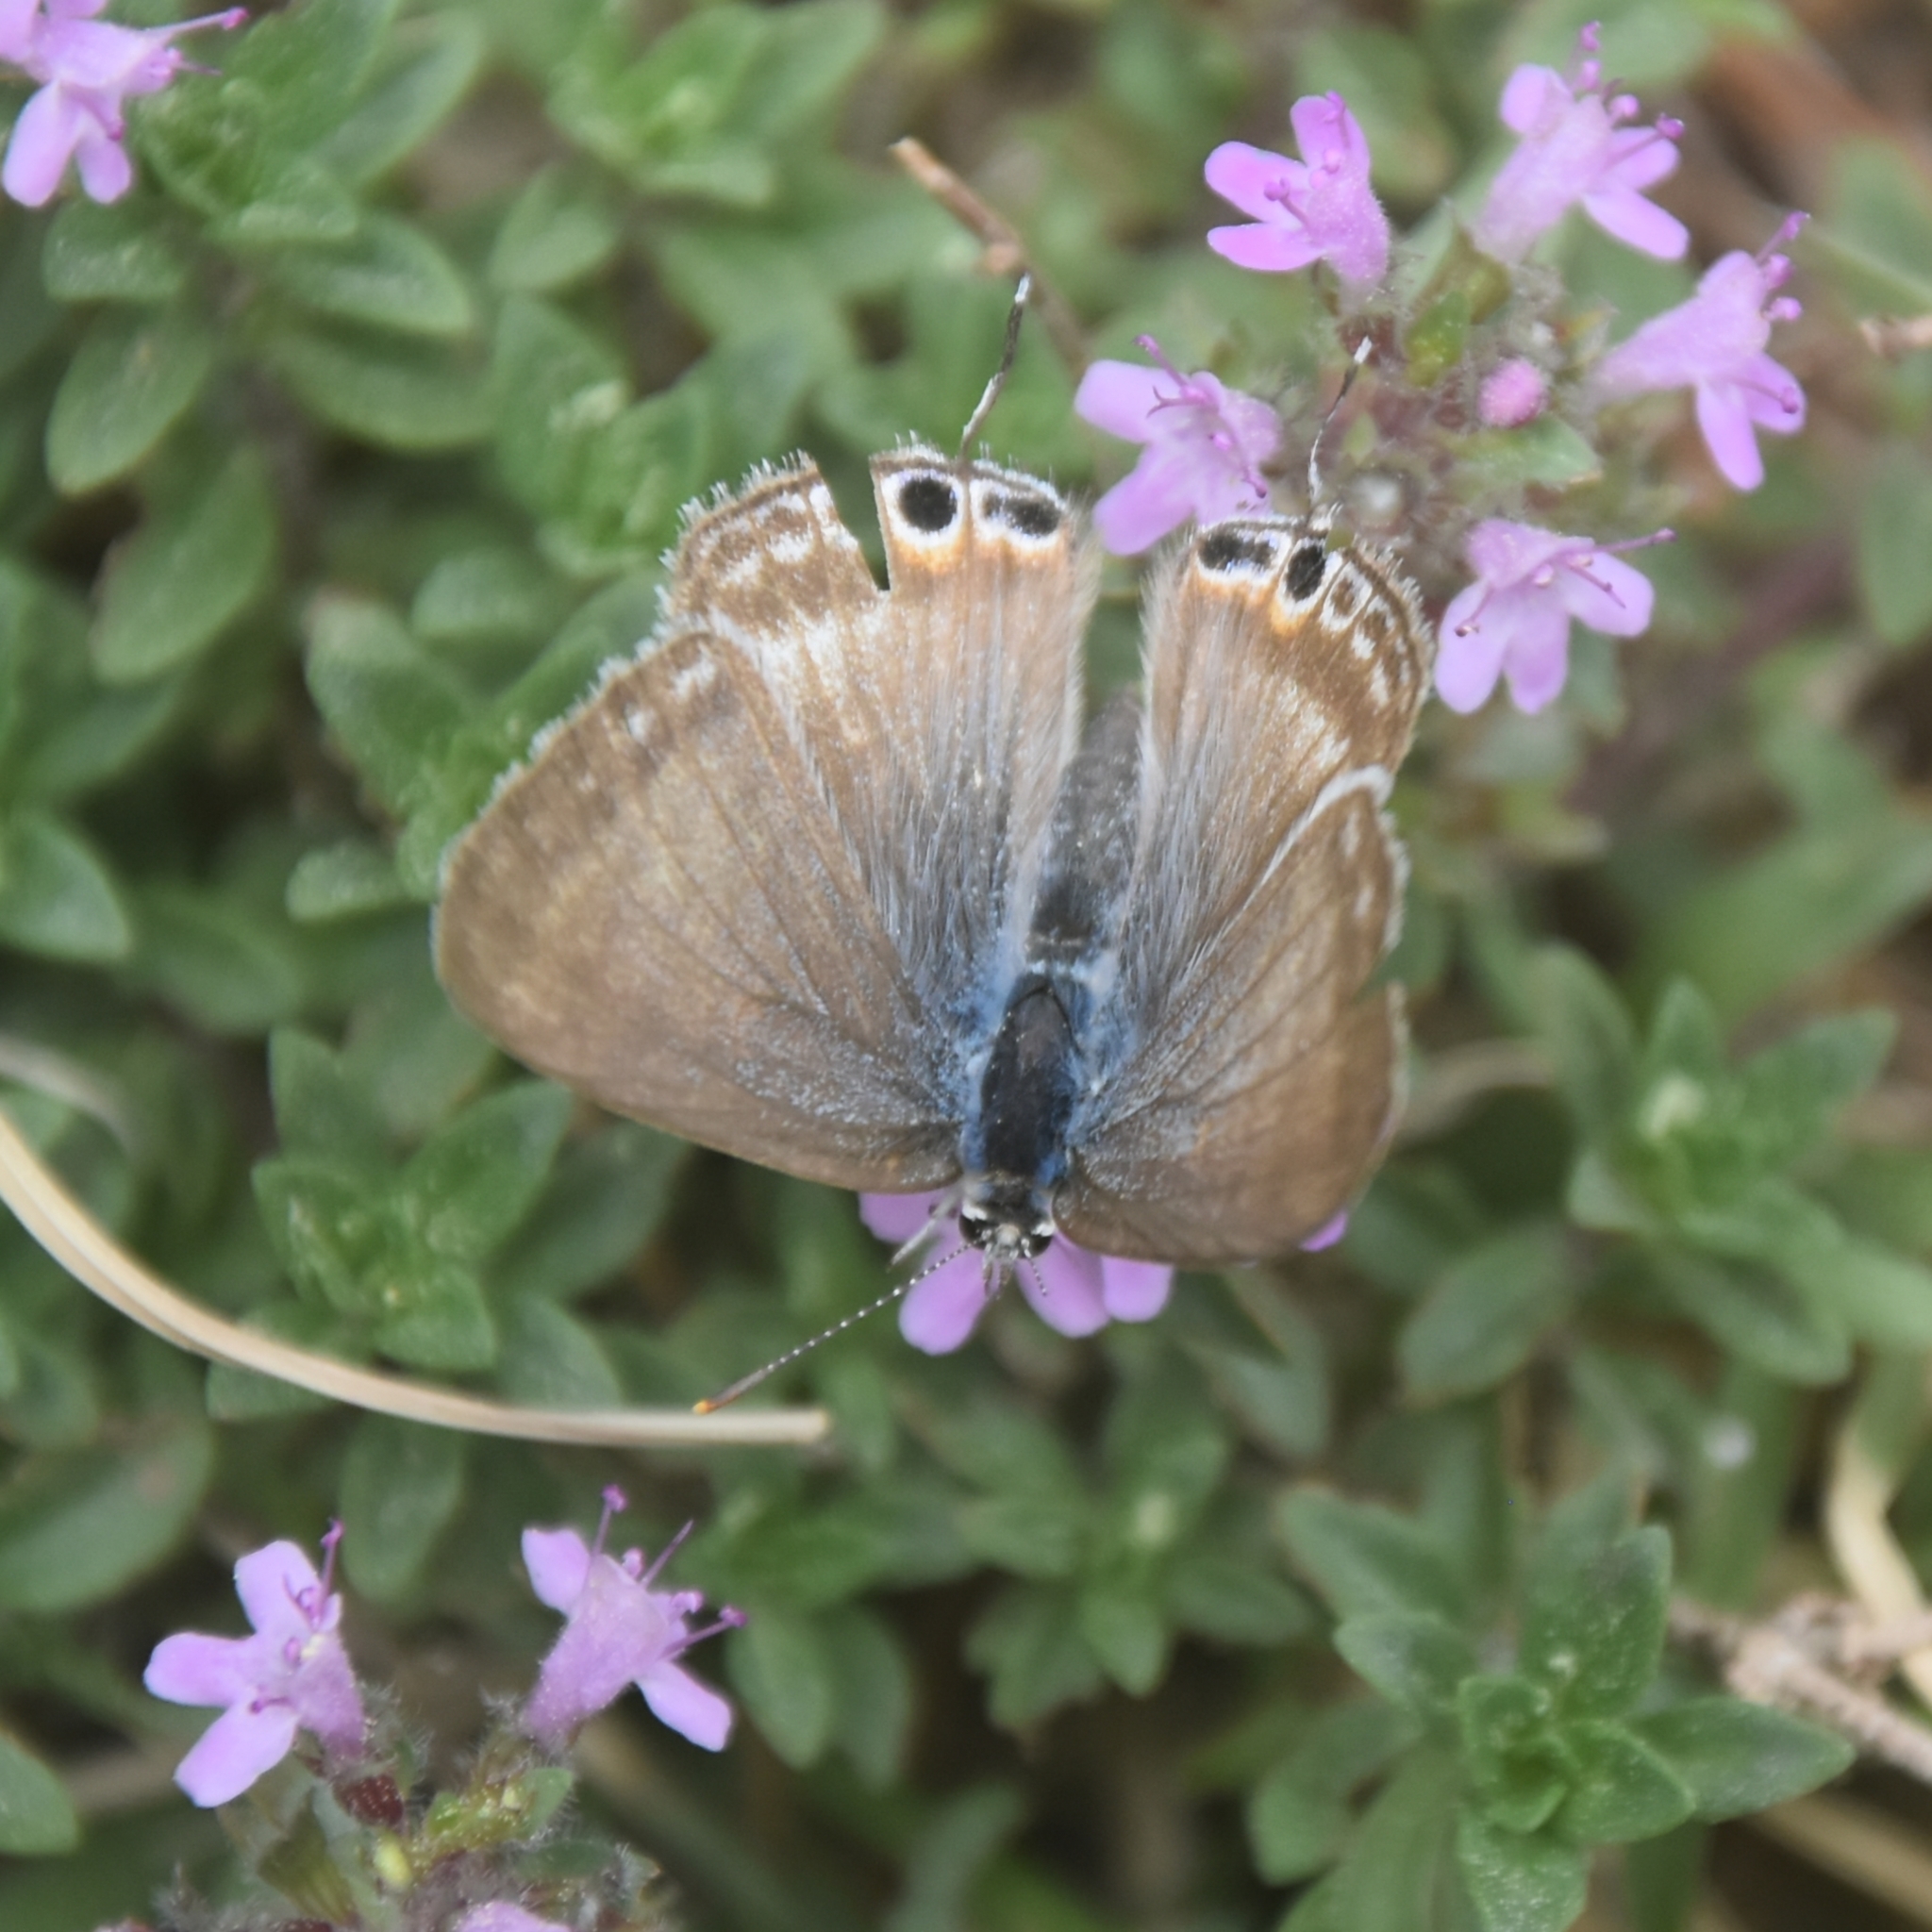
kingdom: Animalia
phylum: Arthropoda
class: Insecta
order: Lepidoptera
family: Lycaenidae
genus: Lampides
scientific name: Lampides boeticus
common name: Long-tailed blue
